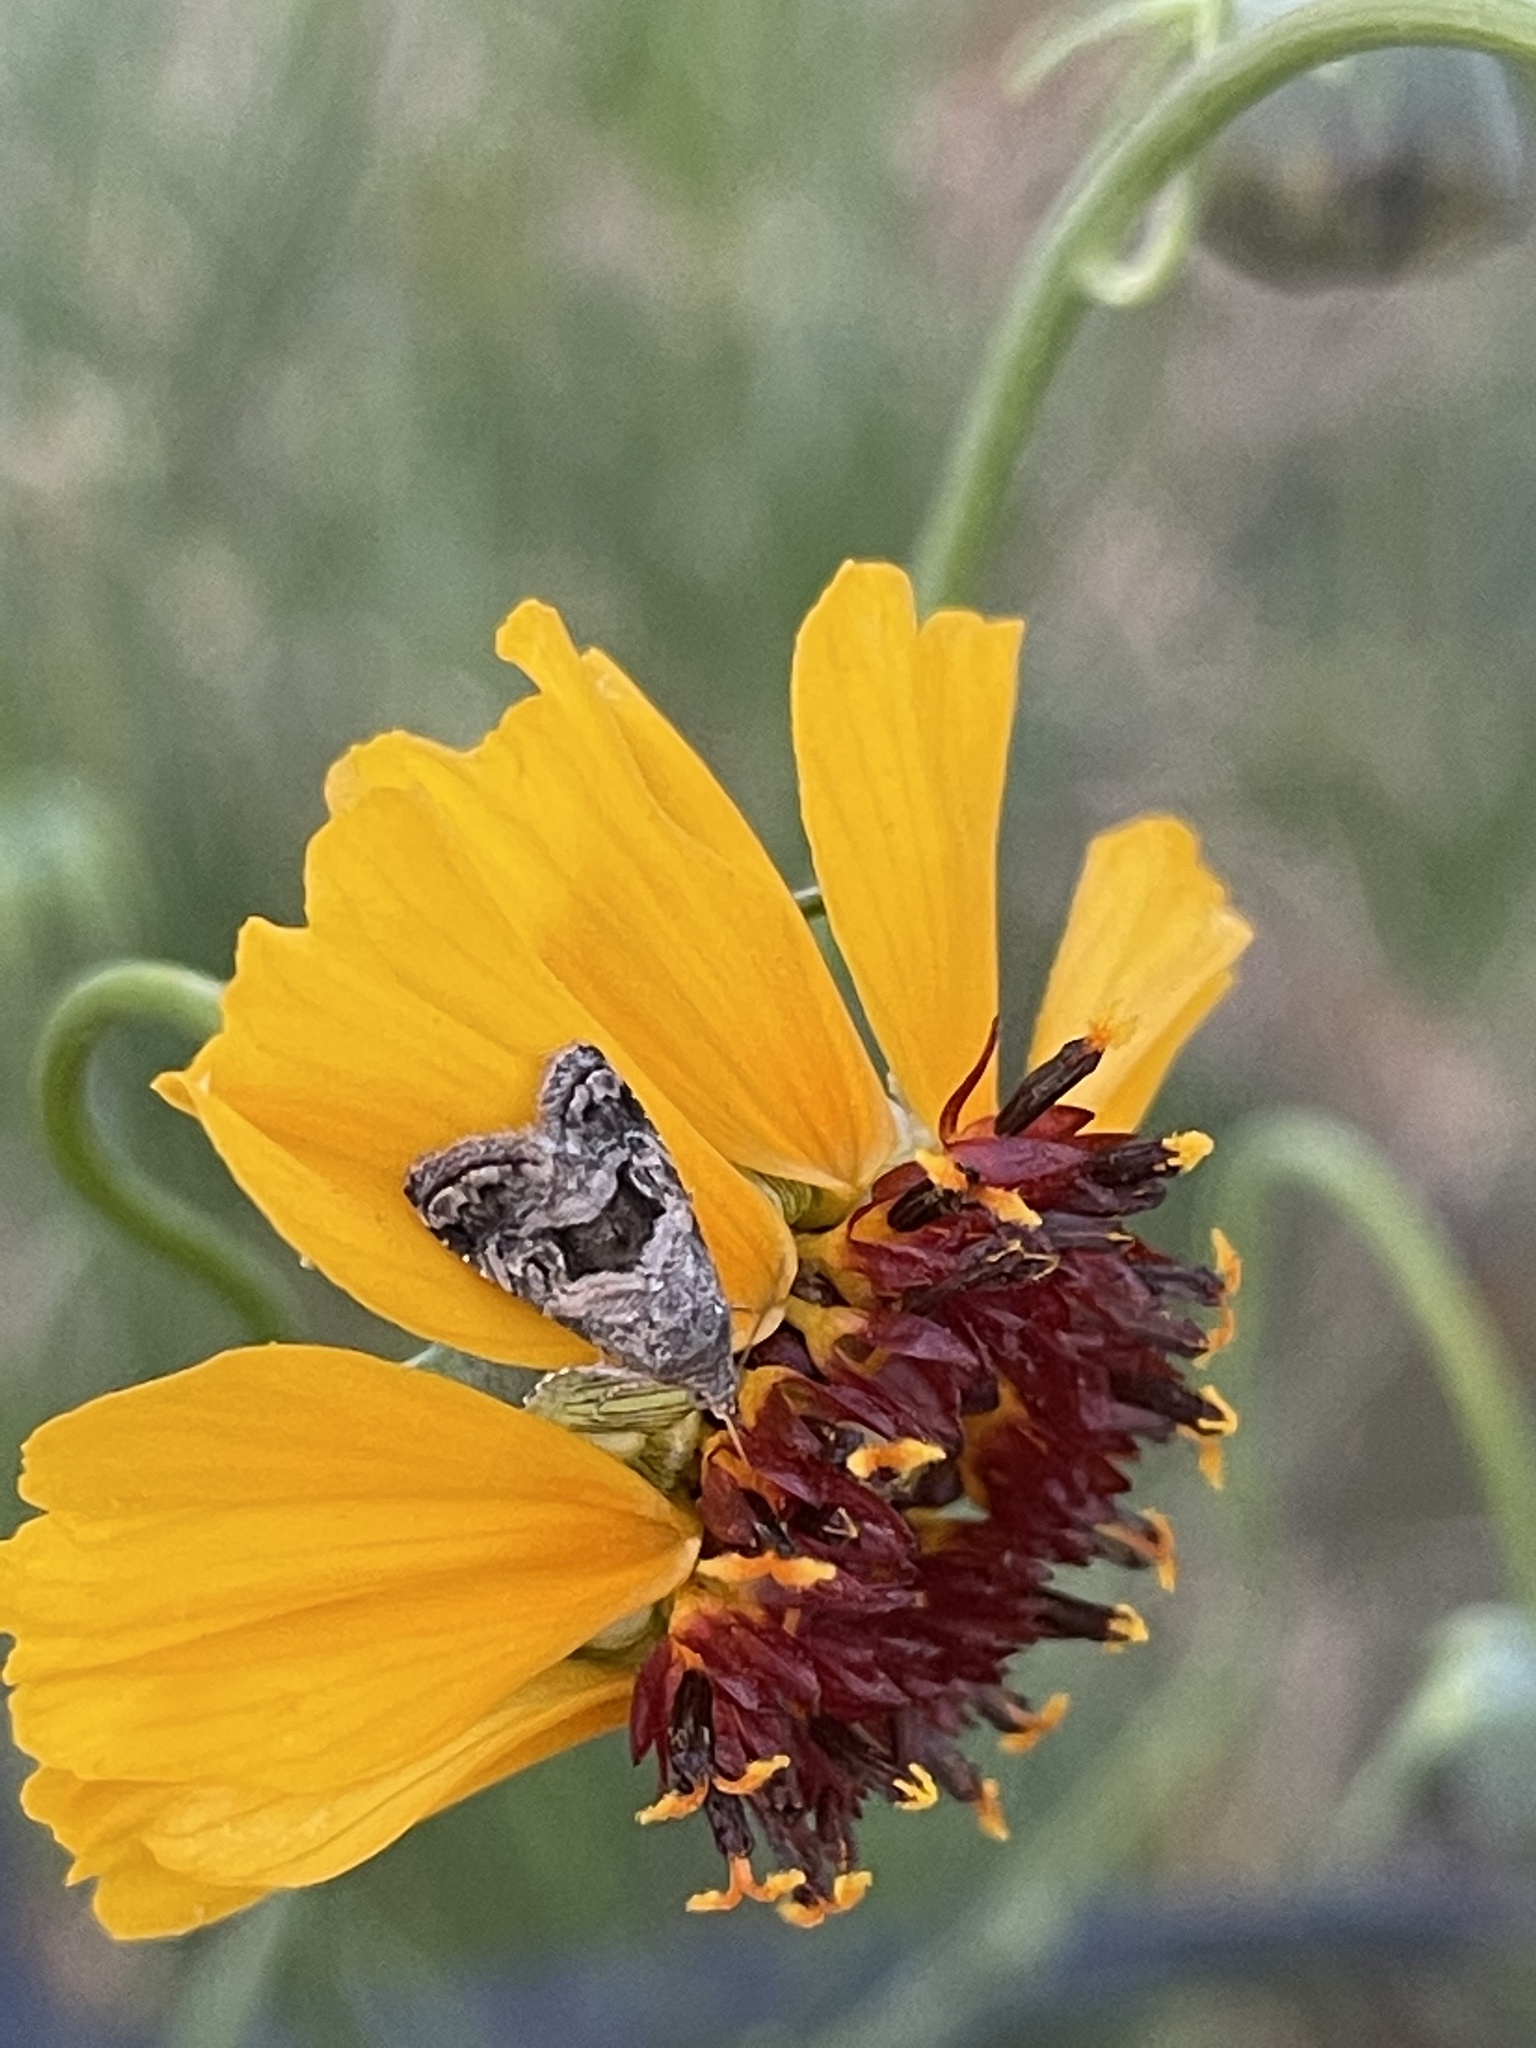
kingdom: Animalia
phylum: Arthropoda
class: Insecta
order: Lepidoptera
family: Noctuidae
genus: Tripudia
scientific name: Tripudia quadrifera
